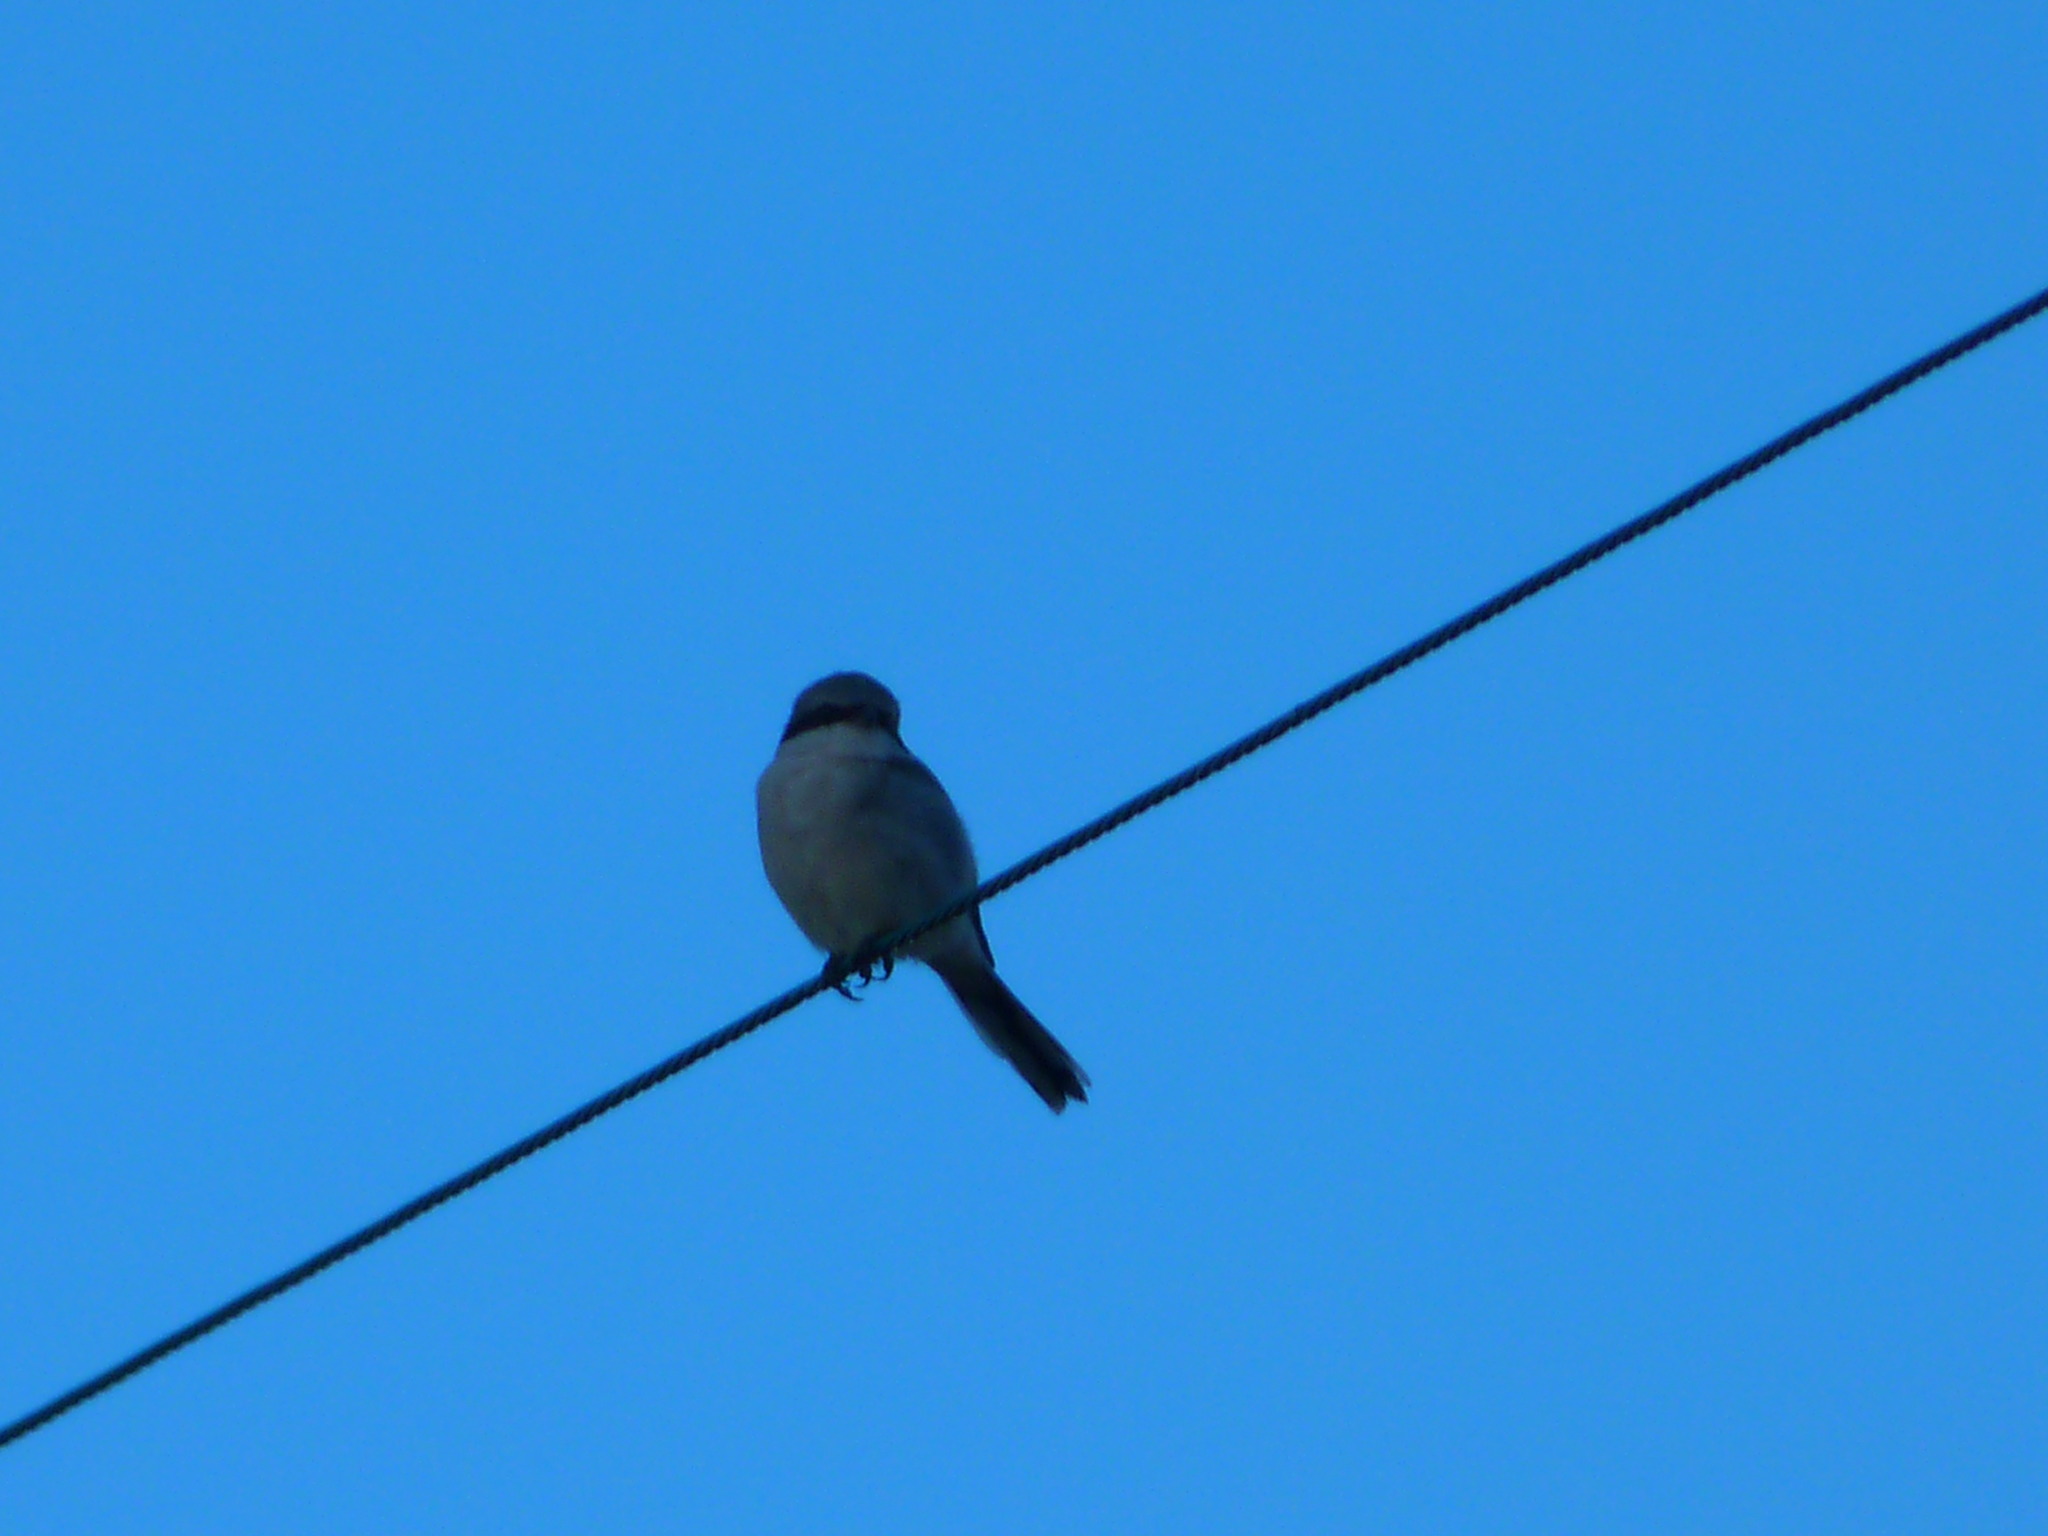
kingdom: Animalia
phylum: Chordata
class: Aves
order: Passeriformes
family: Laniidae
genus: Lanius
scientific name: Lanius ludovicianus
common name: Loggerhead shrike
